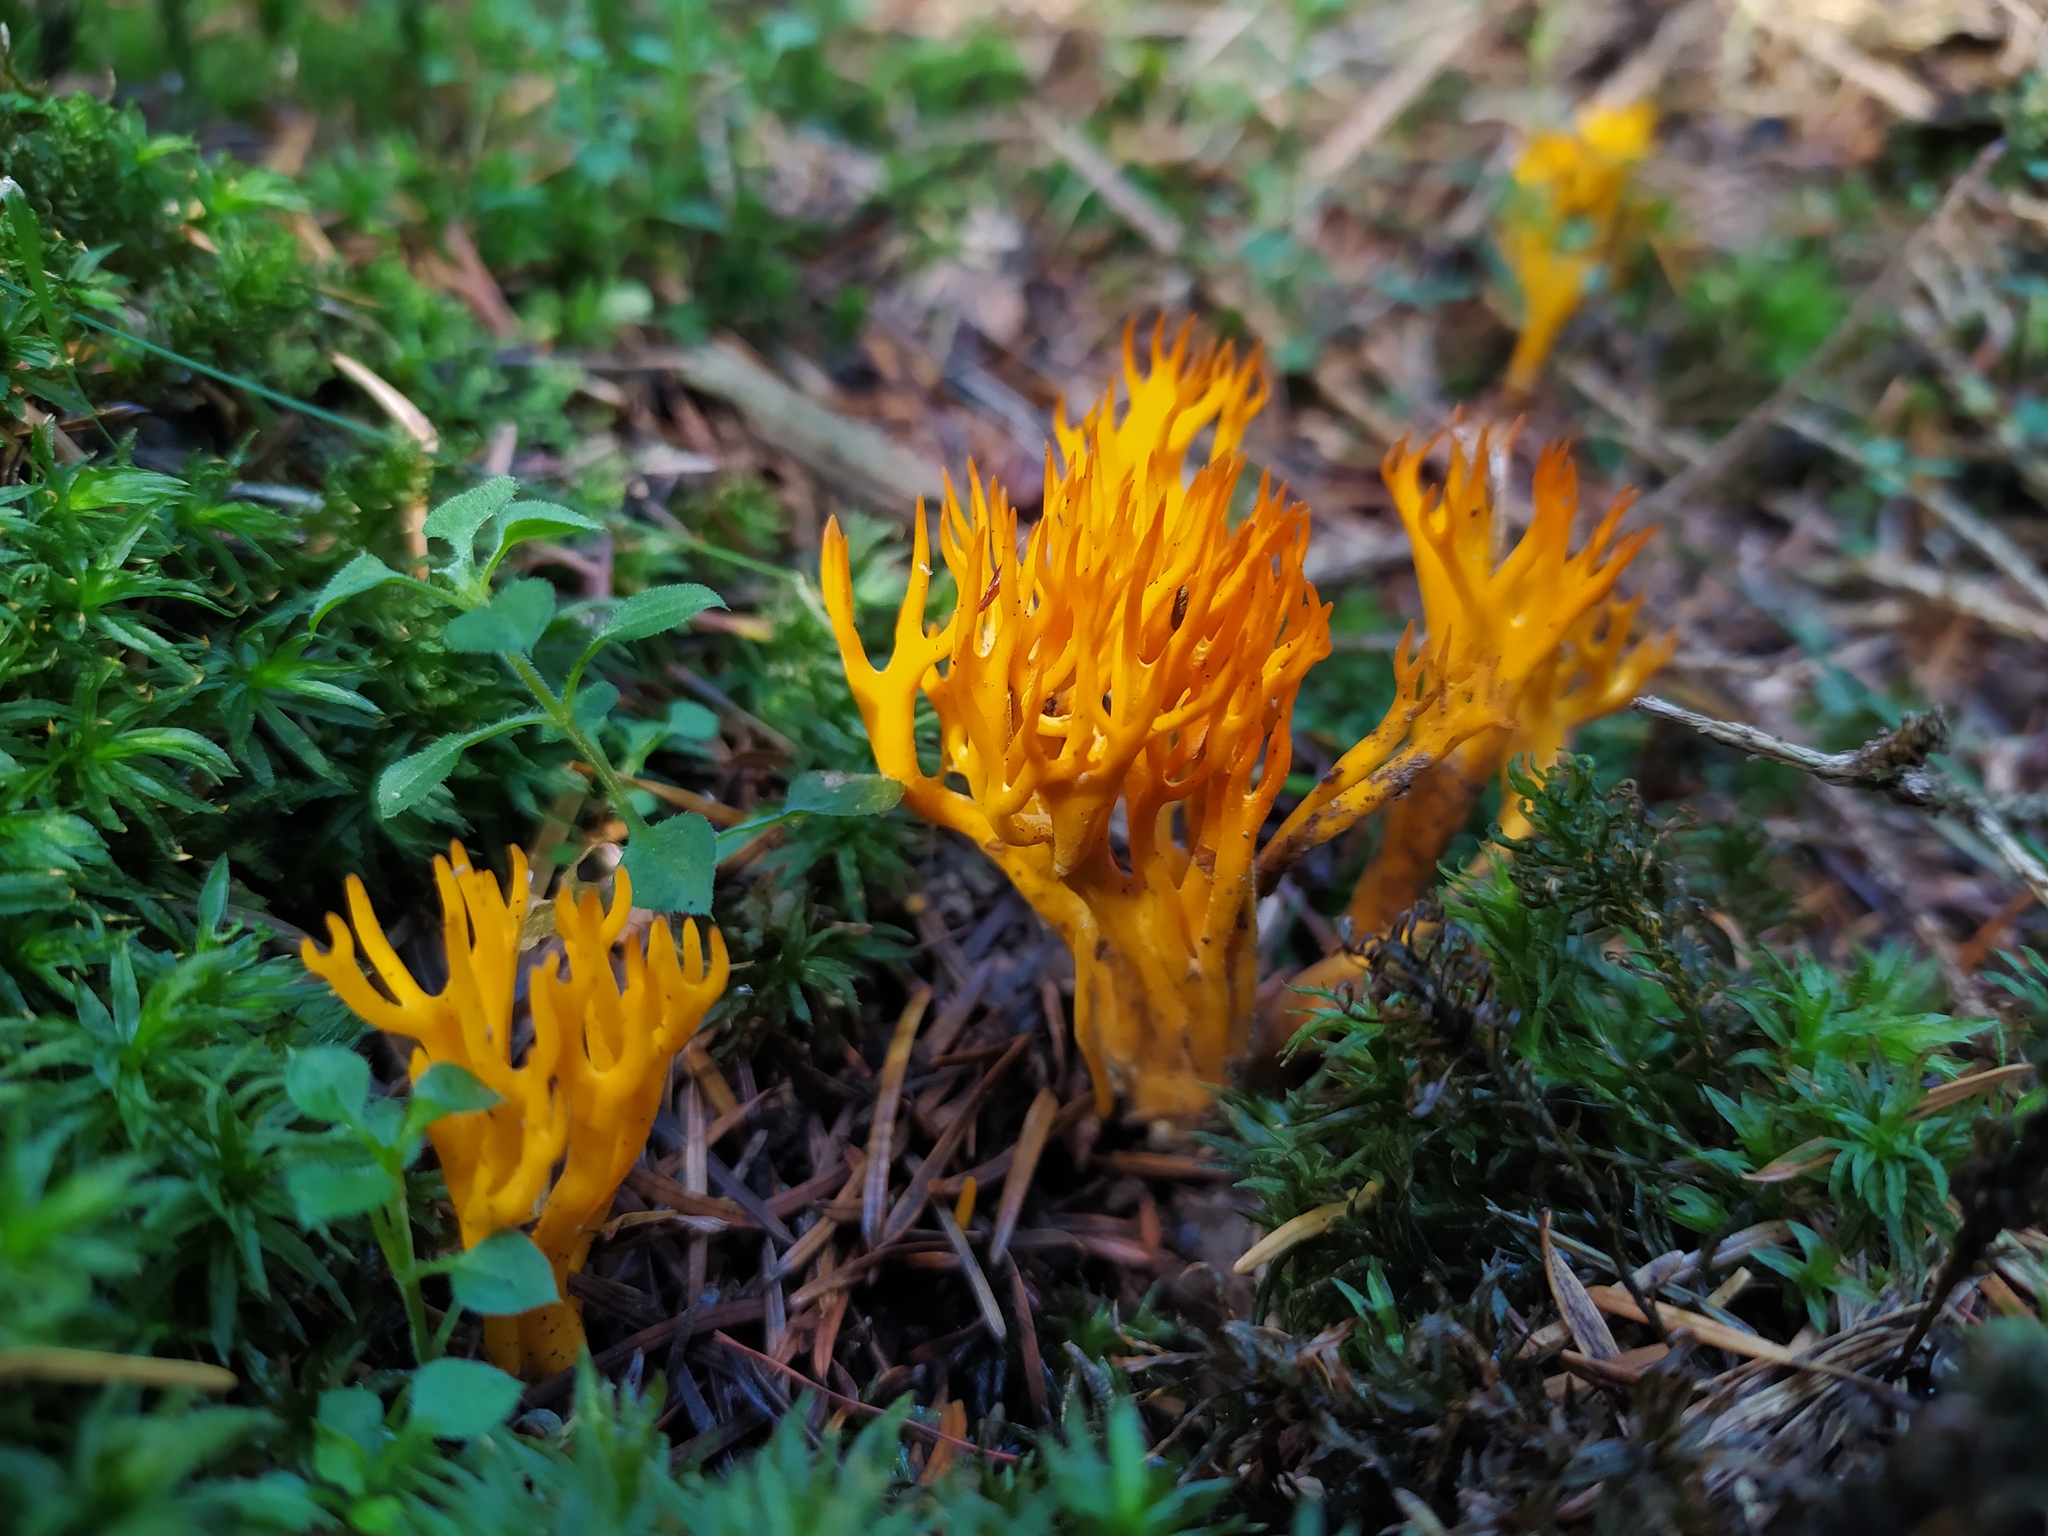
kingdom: Fungi
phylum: Basidiomycota
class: Dacrymycetes
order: Dacrymycetales
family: Dacrymycetaceae
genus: Calocera
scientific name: Calocera viscosa
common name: Yellow stagshorn
